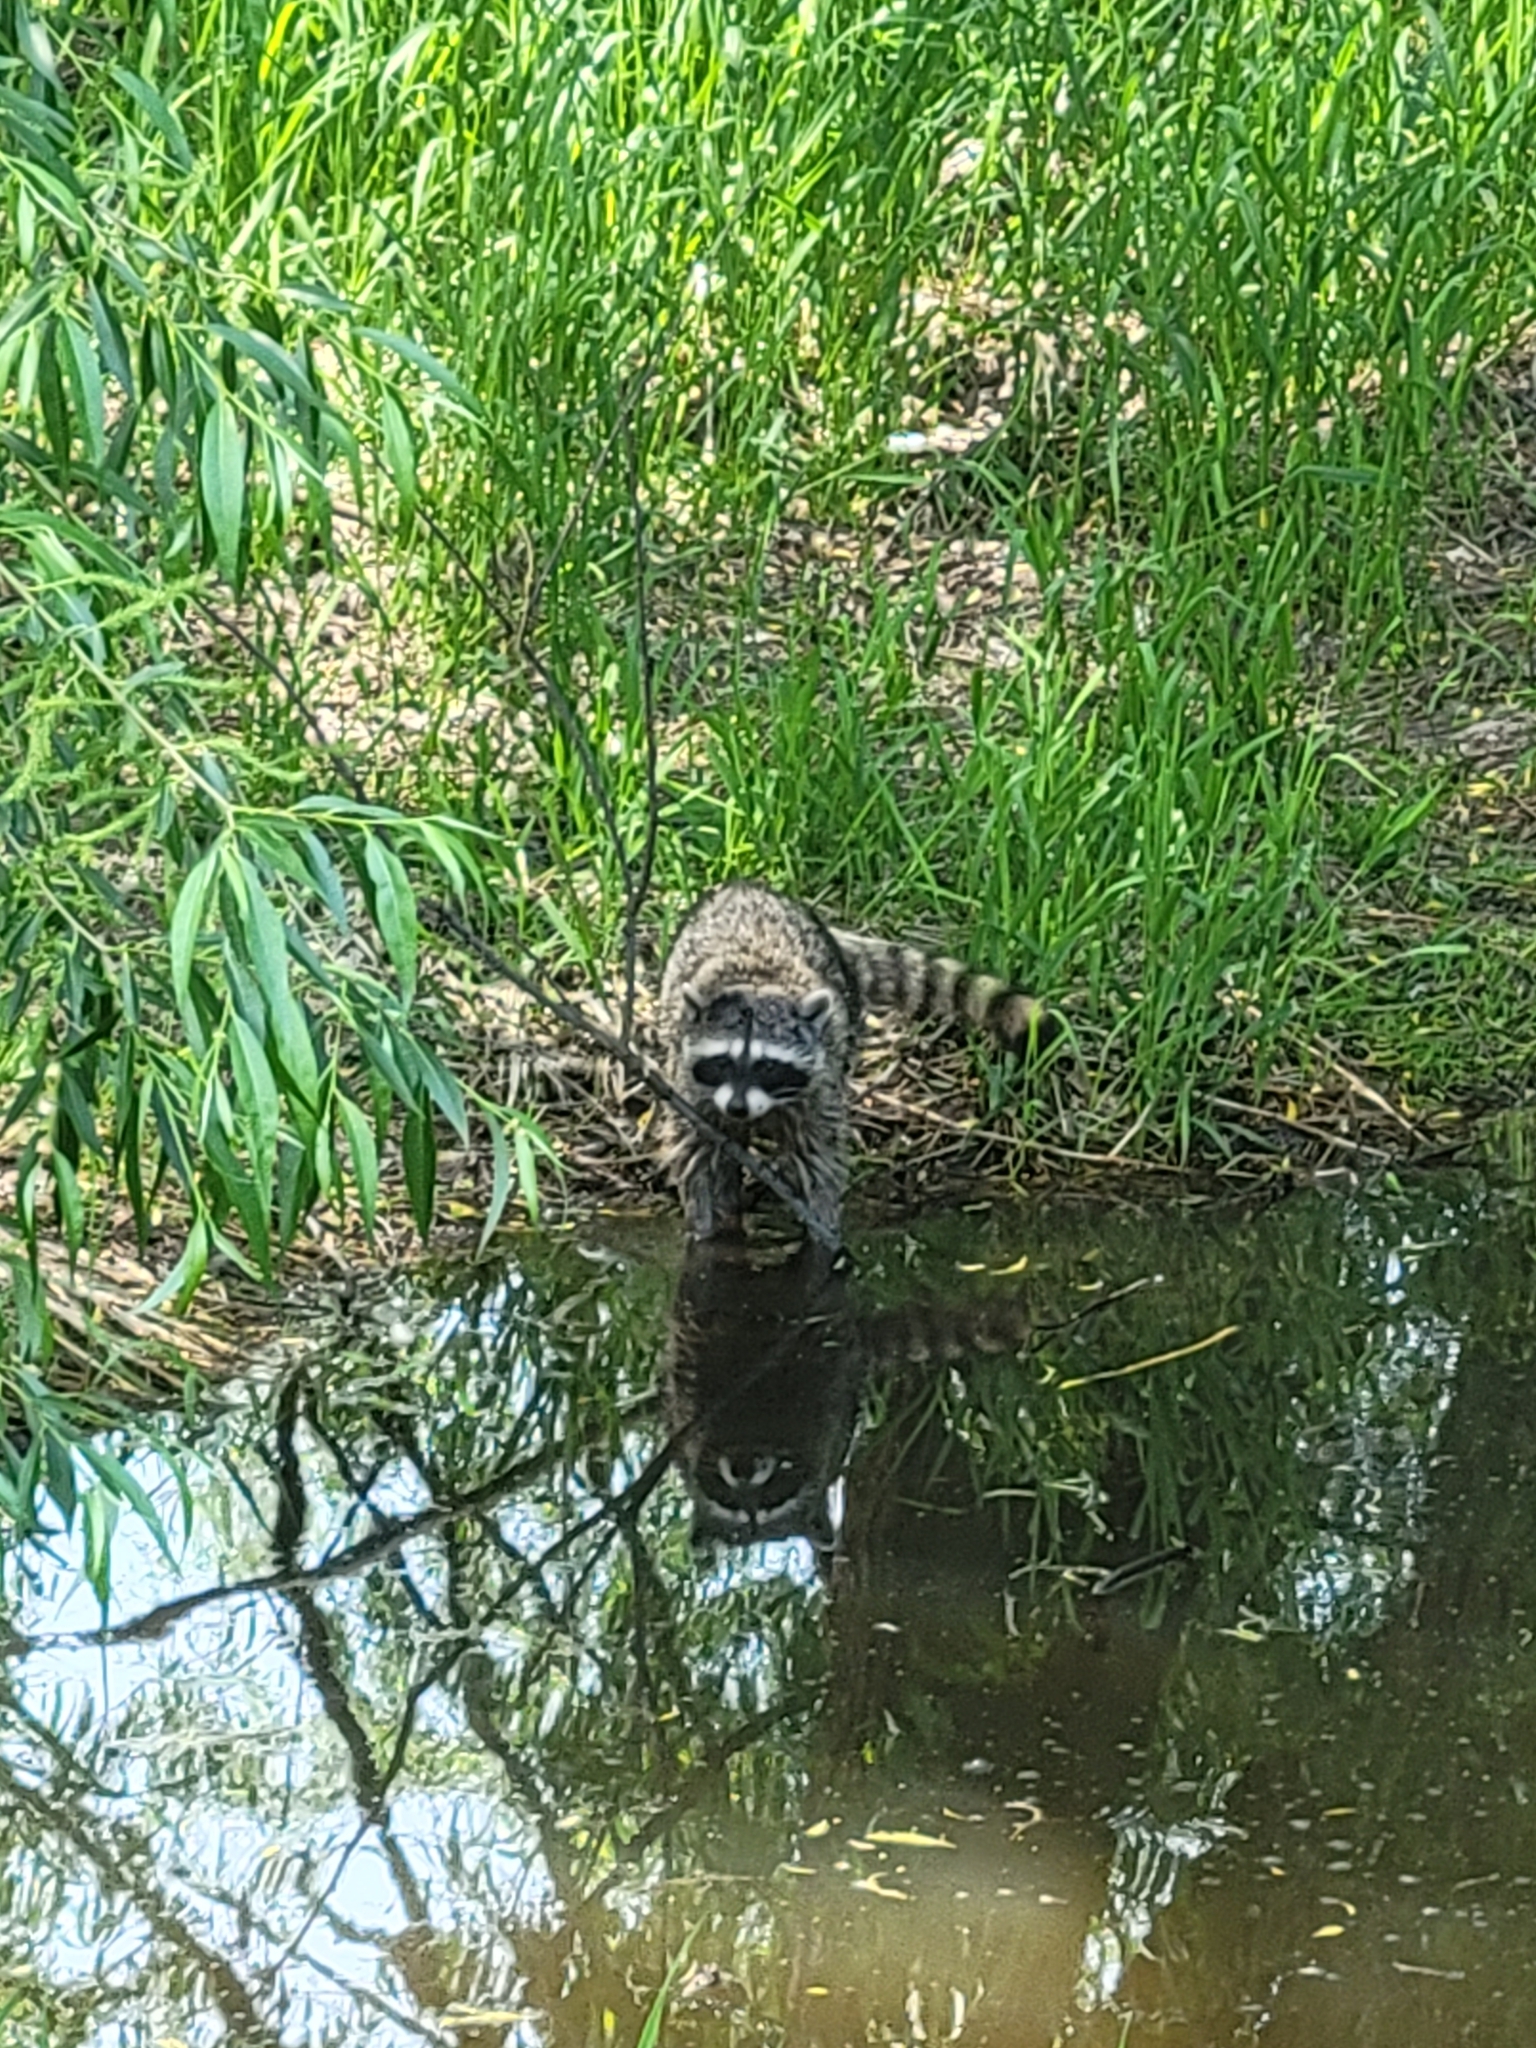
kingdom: Animalia
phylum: Chordata
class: Mammalia
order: Carnivora
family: Procyonidae
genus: Procyon
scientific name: Procyon lotor
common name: Raccoon
